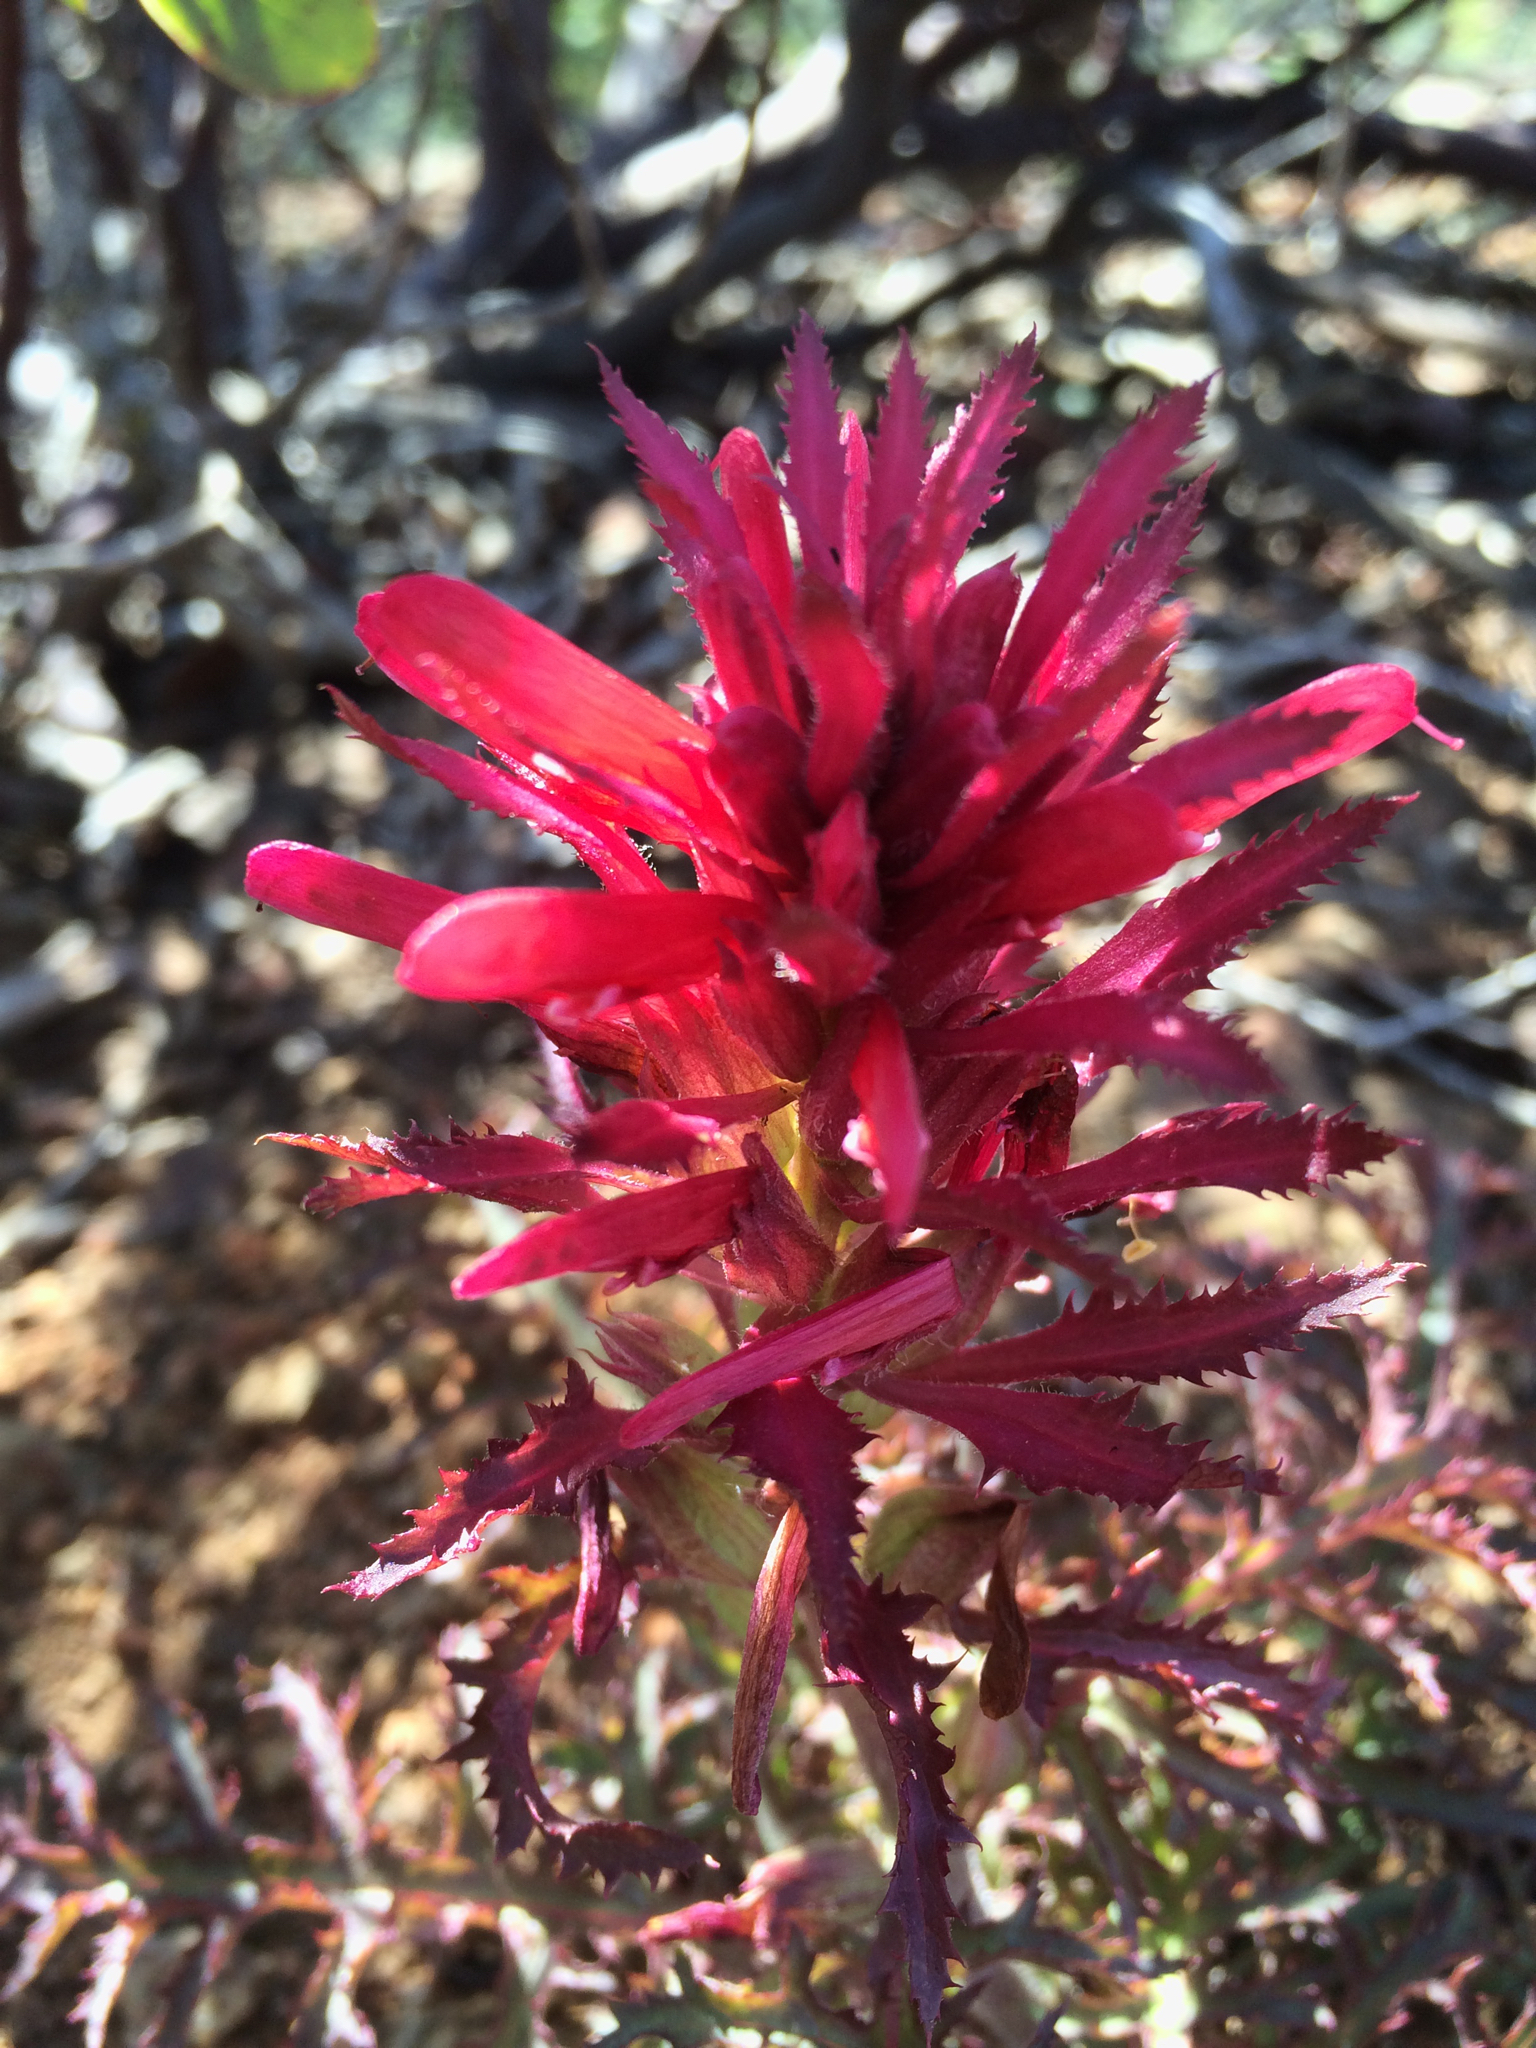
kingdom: Plantae
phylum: Tracheophyta
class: Magnoliopsida
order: Lamiales
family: Orobanchaceae
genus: Pedicularis
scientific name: Pedicularis densiflora
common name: Indian warrior
